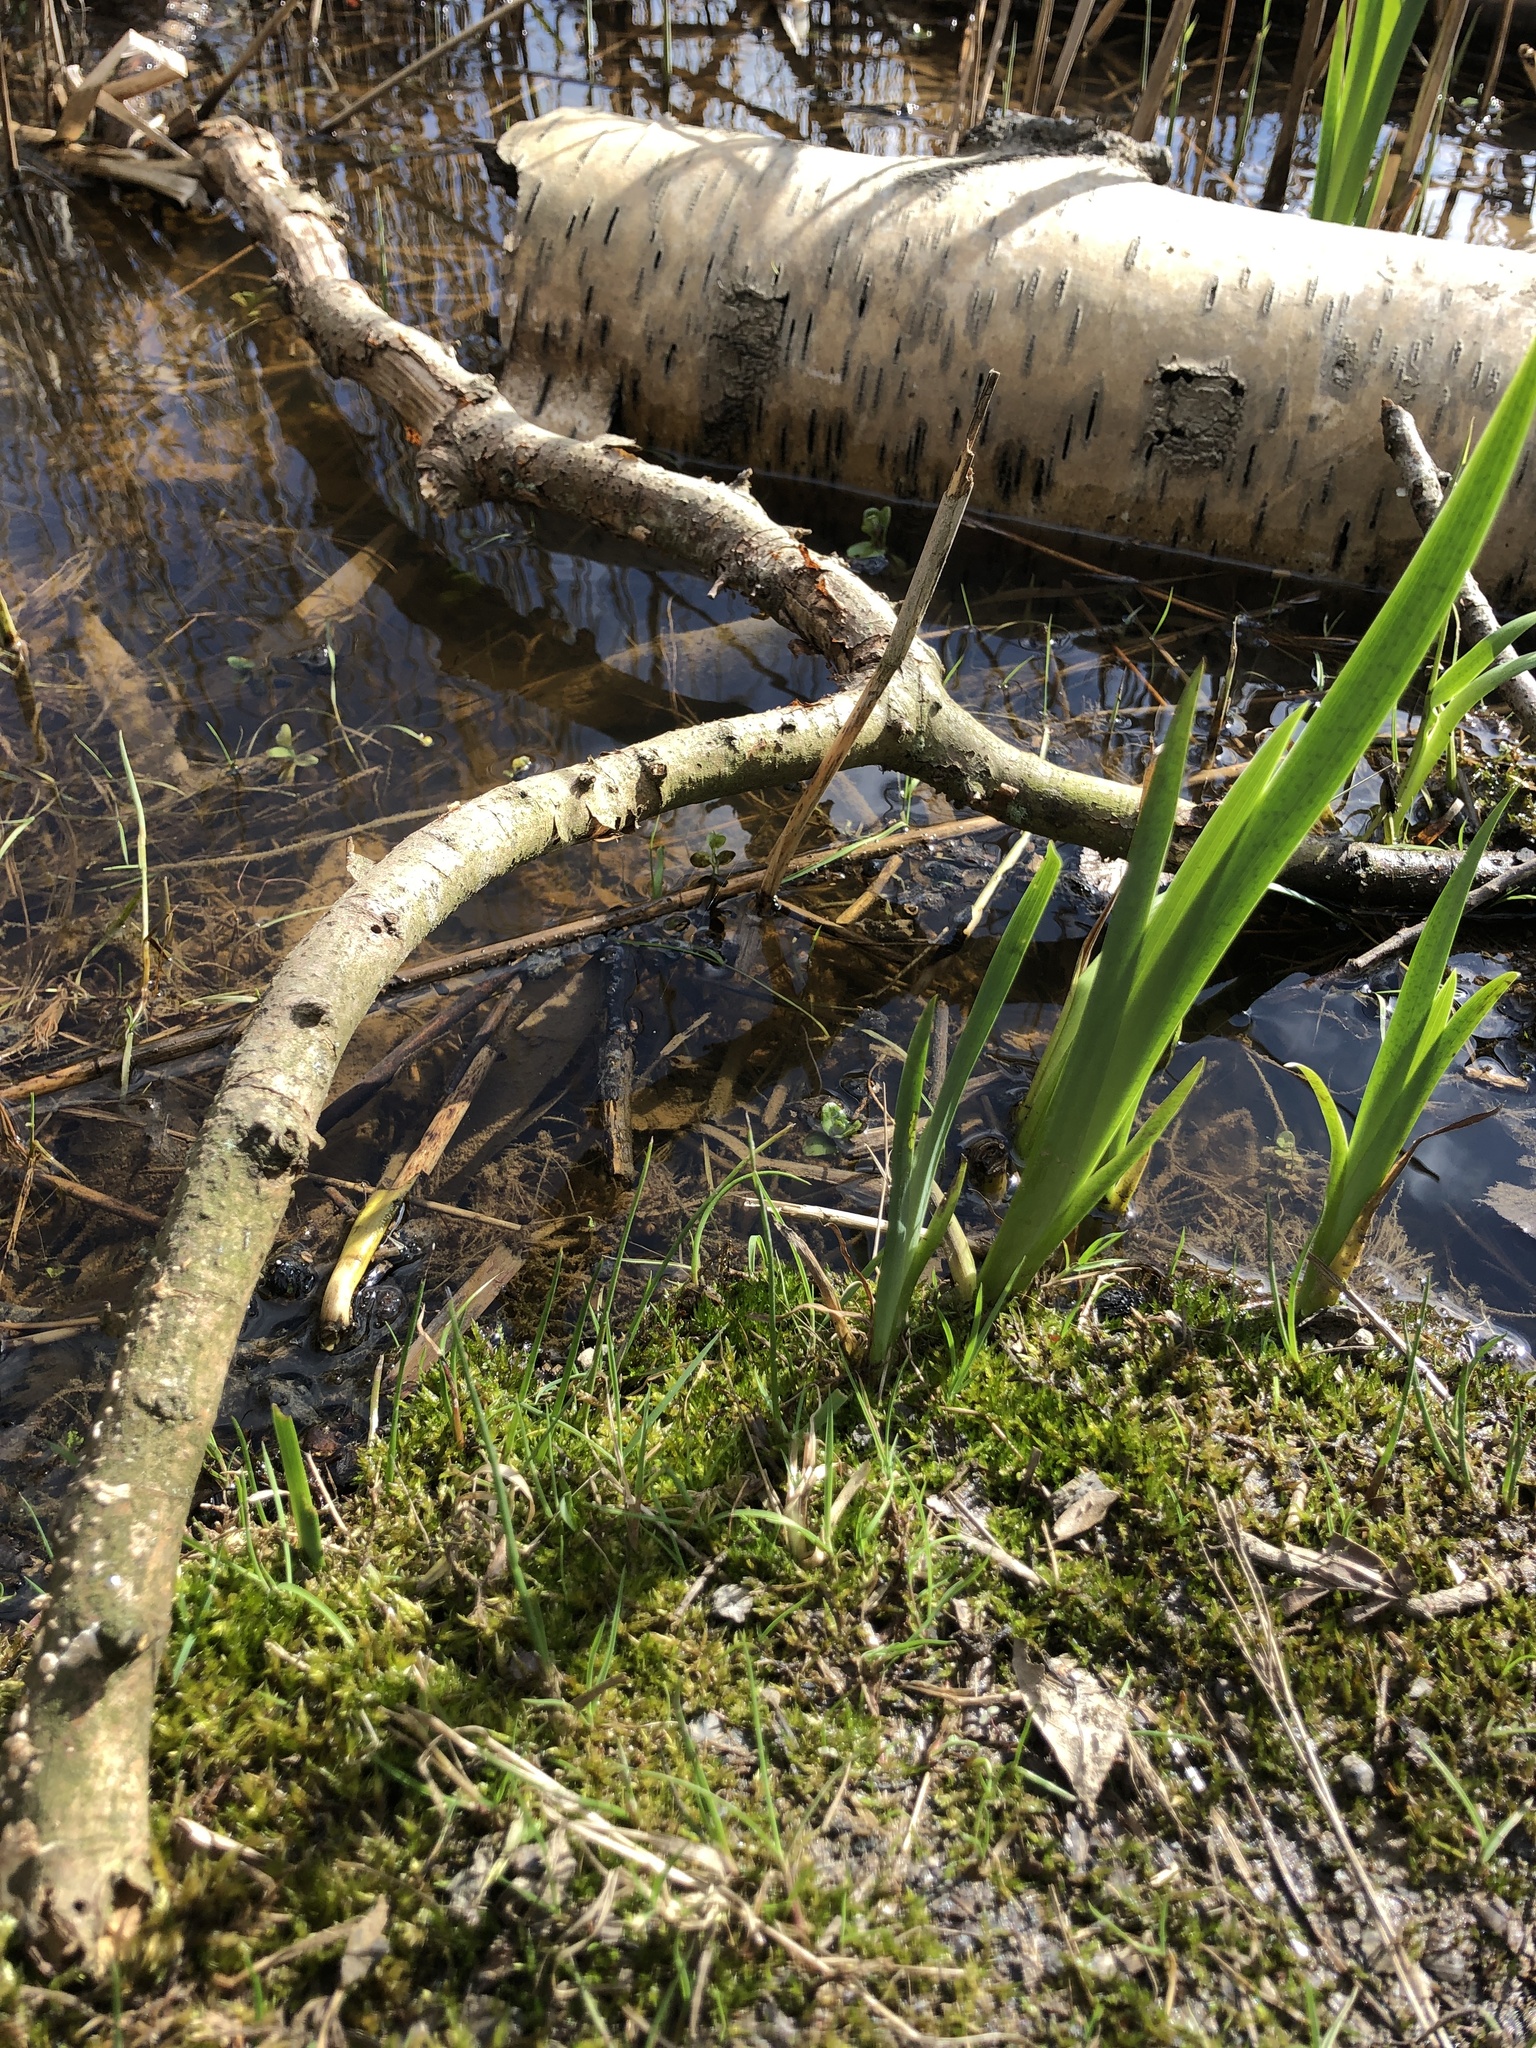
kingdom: Plantae
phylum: Bryophyta
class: Bryopsida
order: Hypnales
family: Pylaisiaceae
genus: Calliergonella
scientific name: Calliergonella cuspidata
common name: Common large wetland moss
